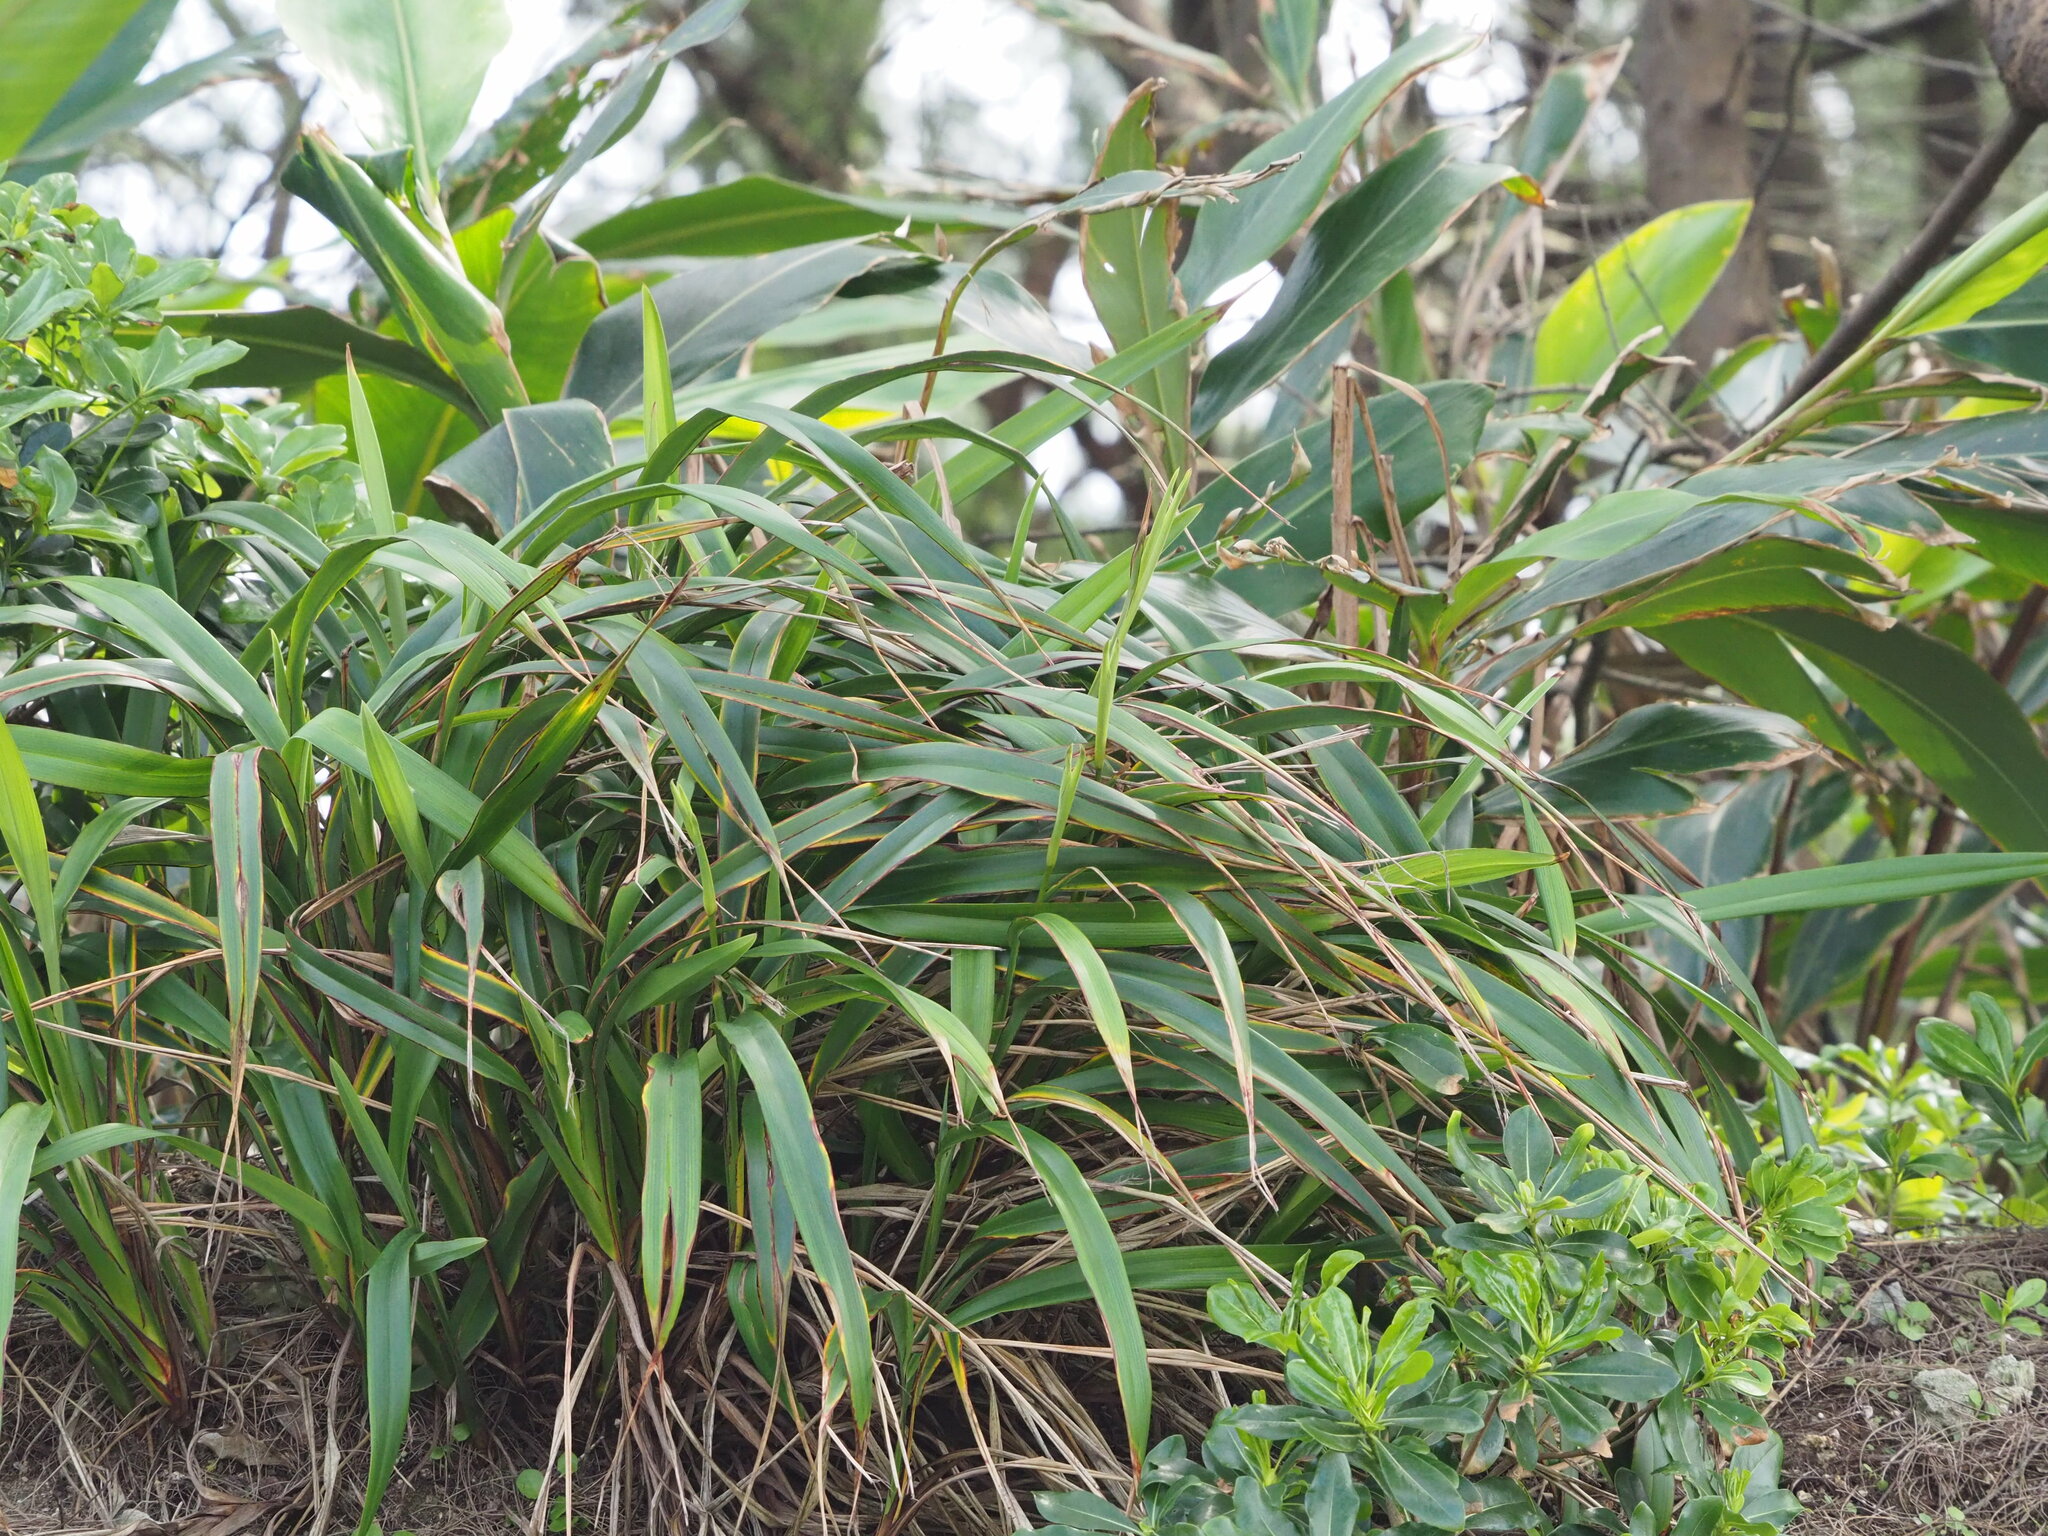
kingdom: Plantae
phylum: Tracheophyta
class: Liliopsida
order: Asparagales
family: Asphodelaceae
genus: Dianella
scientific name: Dianella ensifolia
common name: New zealand lilyplant
